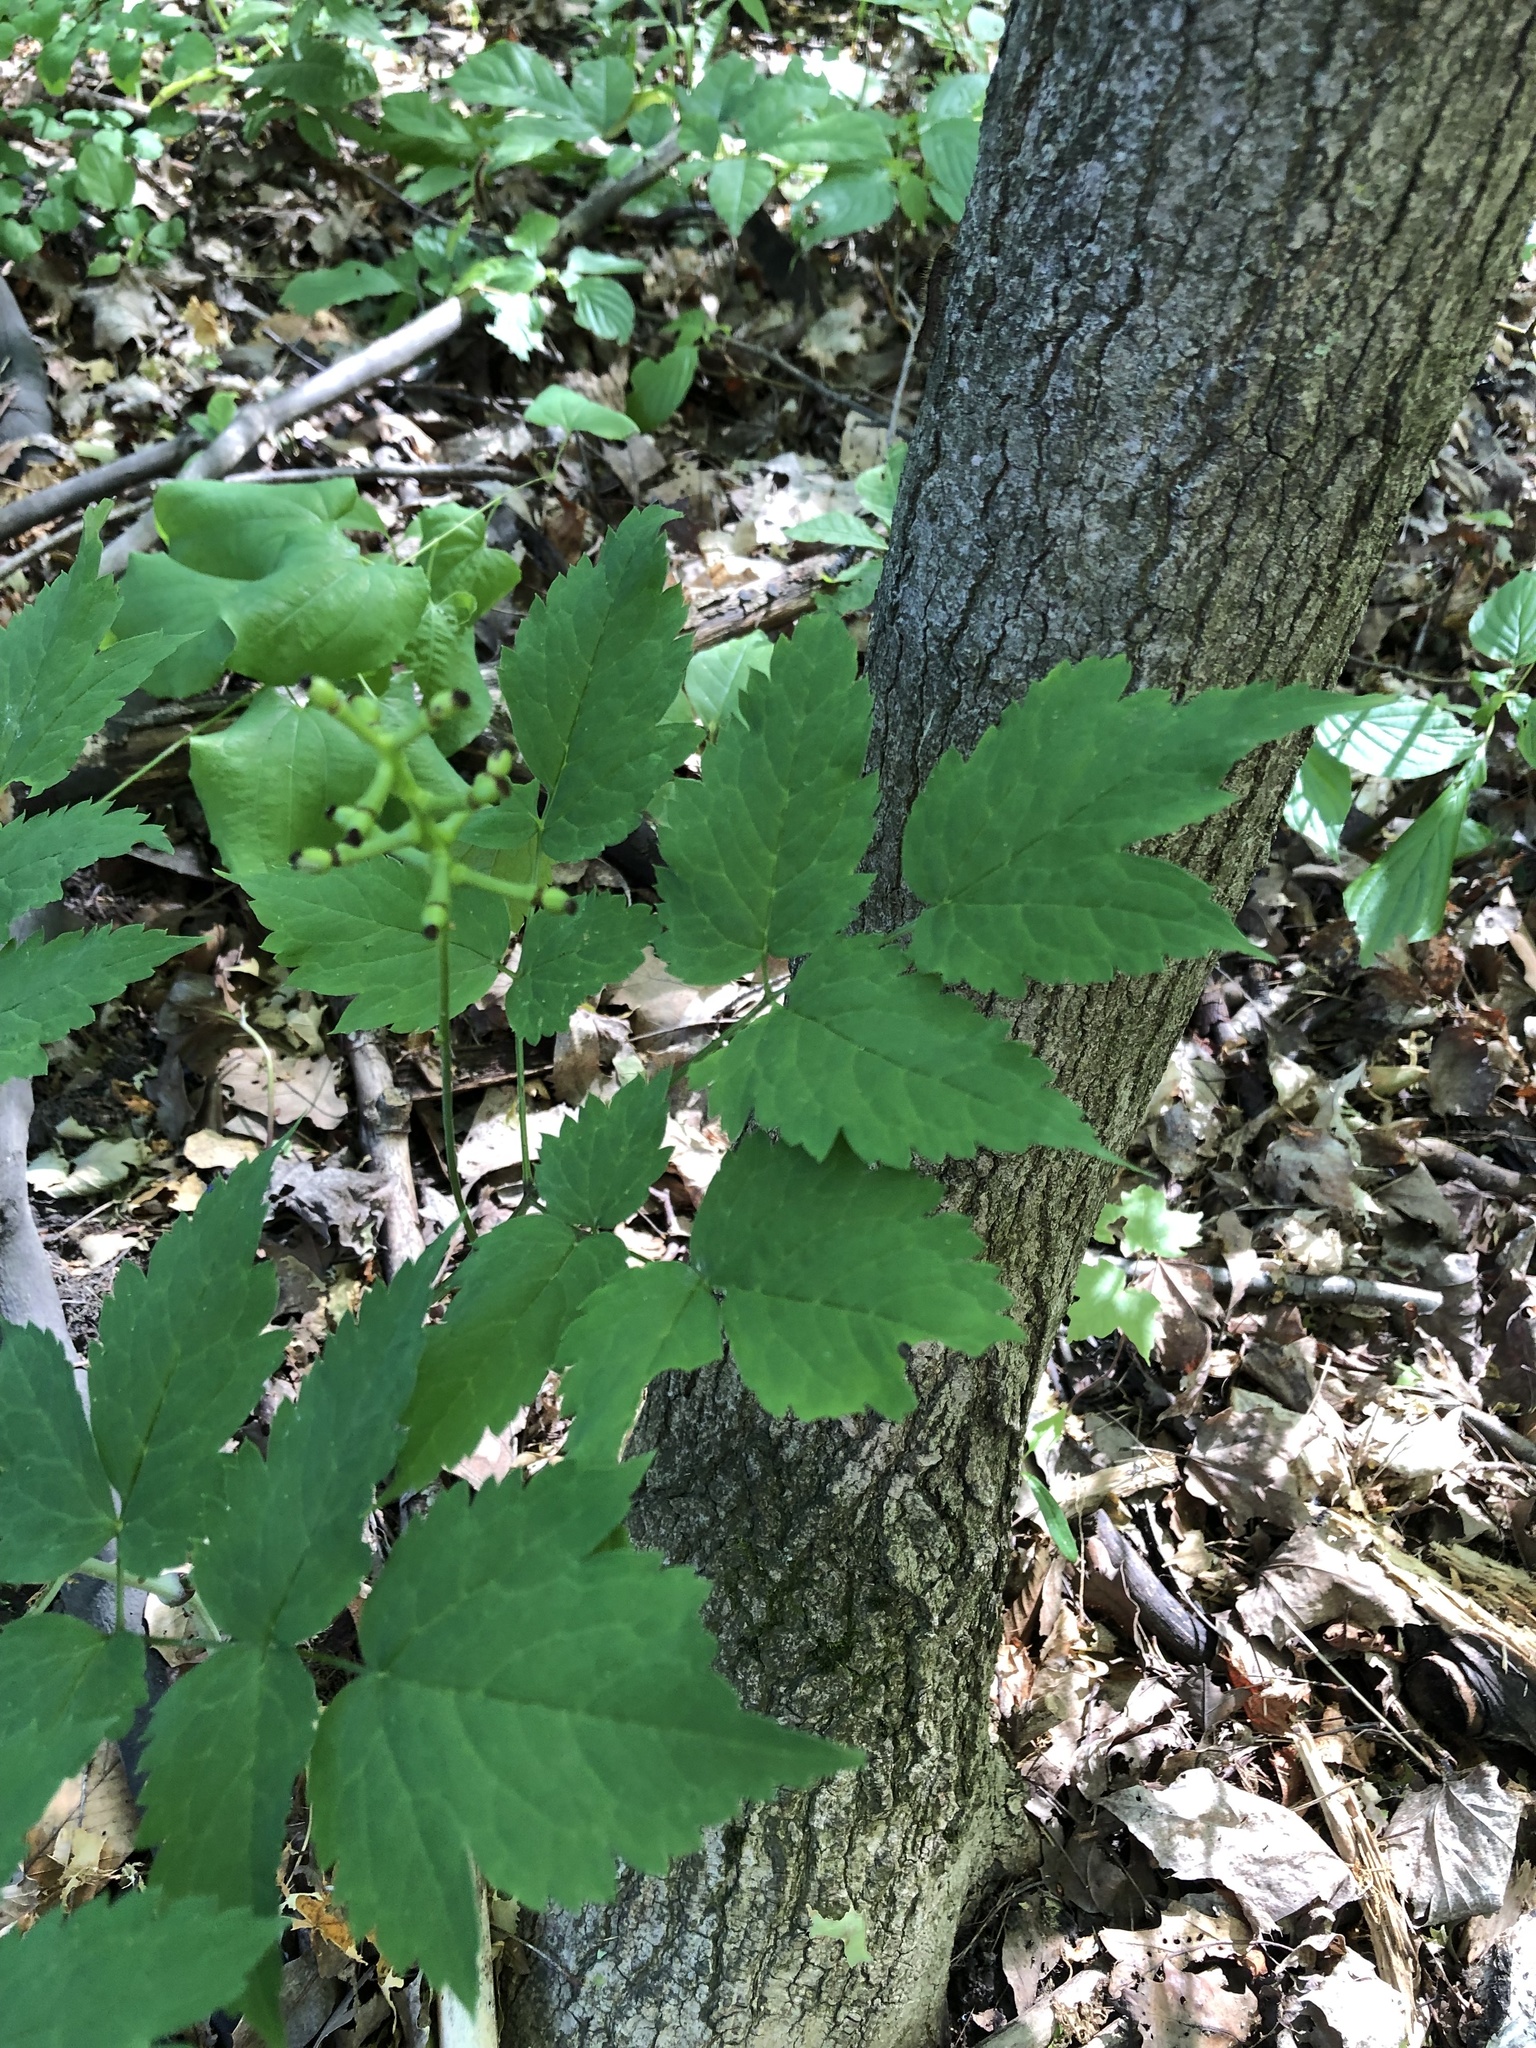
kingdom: Plantae
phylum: Tracheophyta
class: Magnoliopsida
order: Ranunculales
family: Ranunculaceae
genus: Actaea
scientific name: Actaea pachypoda
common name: Doll's-eyes
